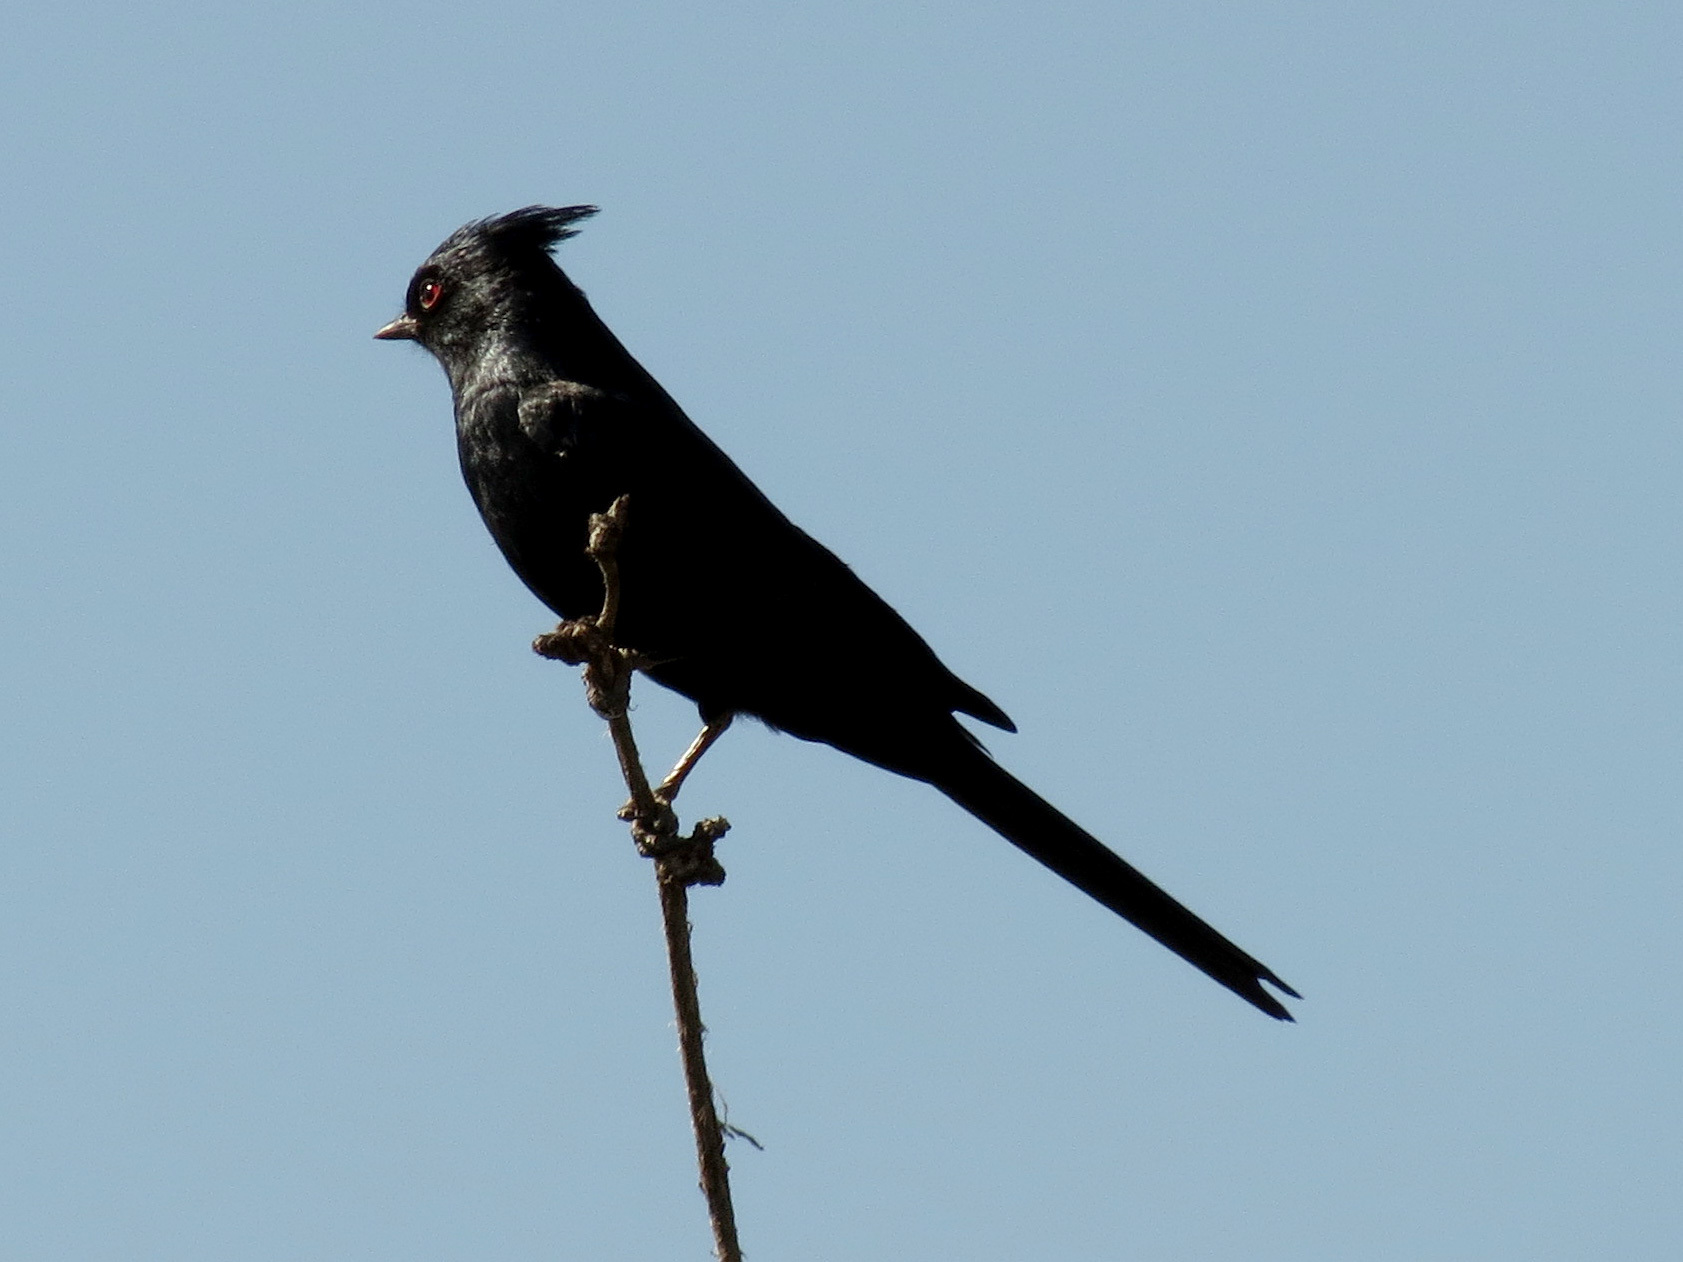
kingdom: Animalia
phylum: Chordata
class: Aves
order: Passeriformes
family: Ptilogonatidae
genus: Phainopepla
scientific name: Phainopepla nitens
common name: Phainopepla
